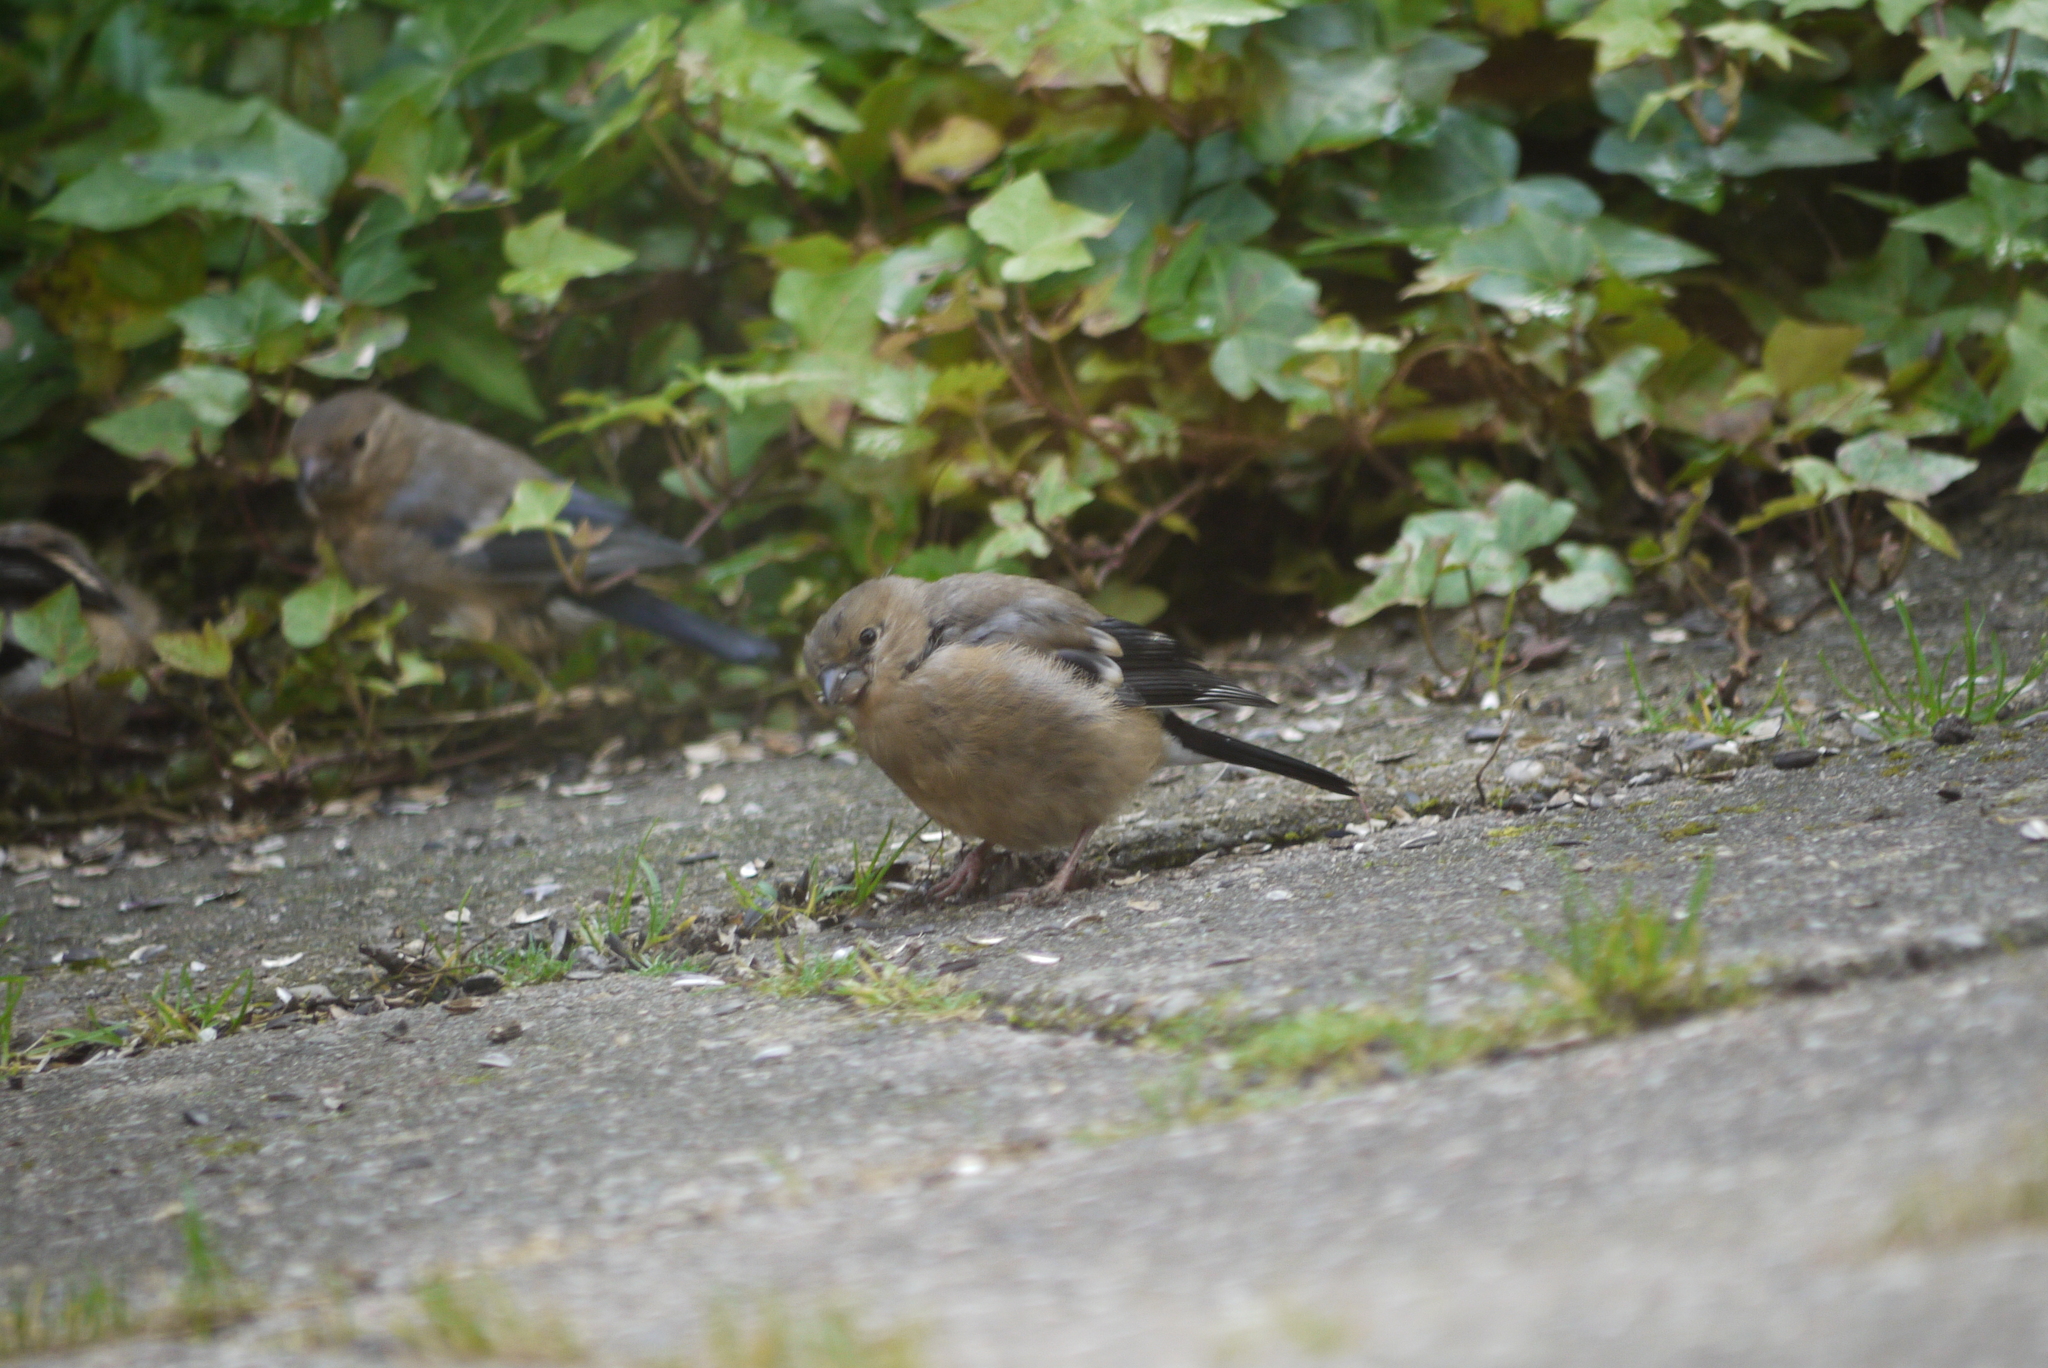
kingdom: Animalia
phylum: Chordata
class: Aves
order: Passeriformes
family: Fringillidae
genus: Pyrrhula
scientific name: Pyrrhula pyrrhula
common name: Eurasian bullfinch
